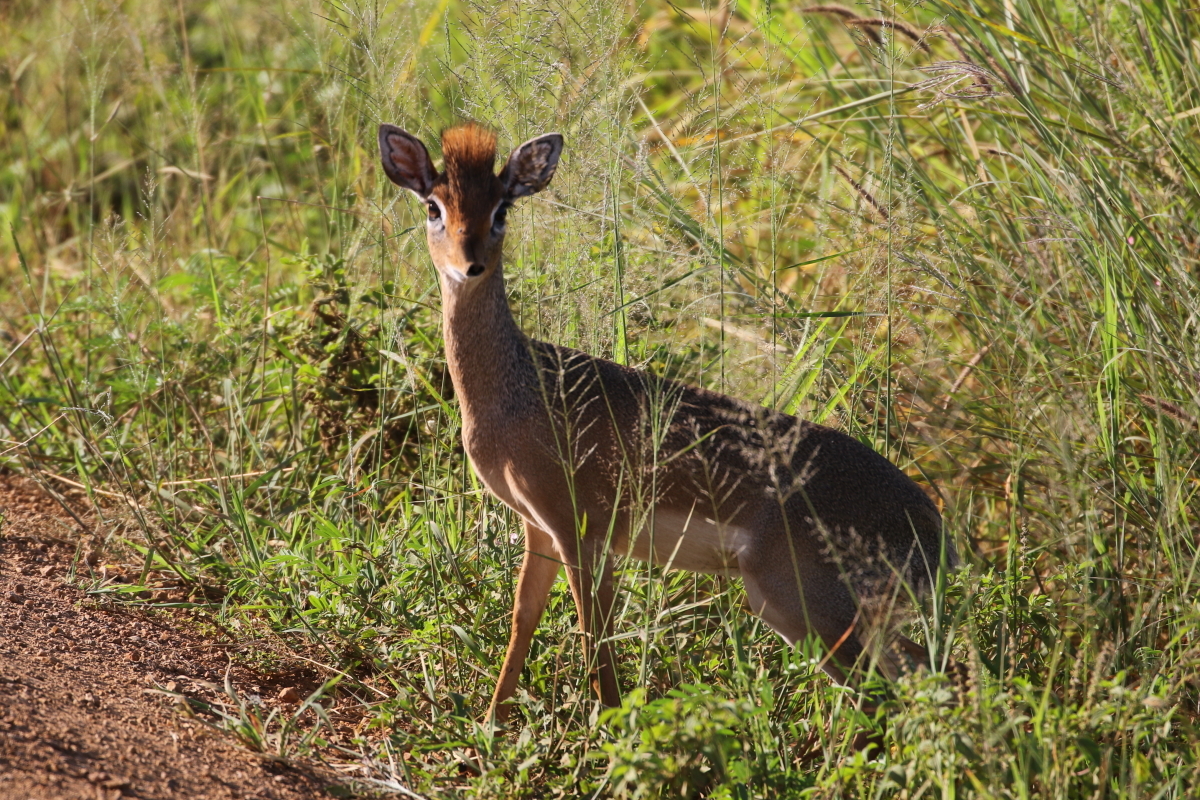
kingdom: Animalia
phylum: Chordata
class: Mammalia
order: Artiodactyla
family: Bovidae
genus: Madoqua
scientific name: Madoqua
